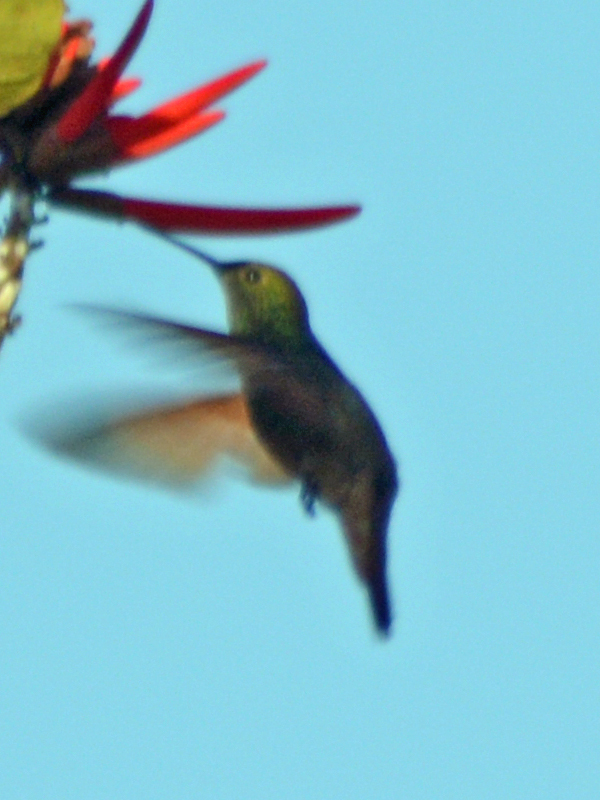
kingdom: Animalia
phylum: Chordata
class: Aves
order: Apodiformes
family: Trochilidae
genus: Saucerottia
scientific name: Saucerottia beryllina
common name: Berylline hummingbird
